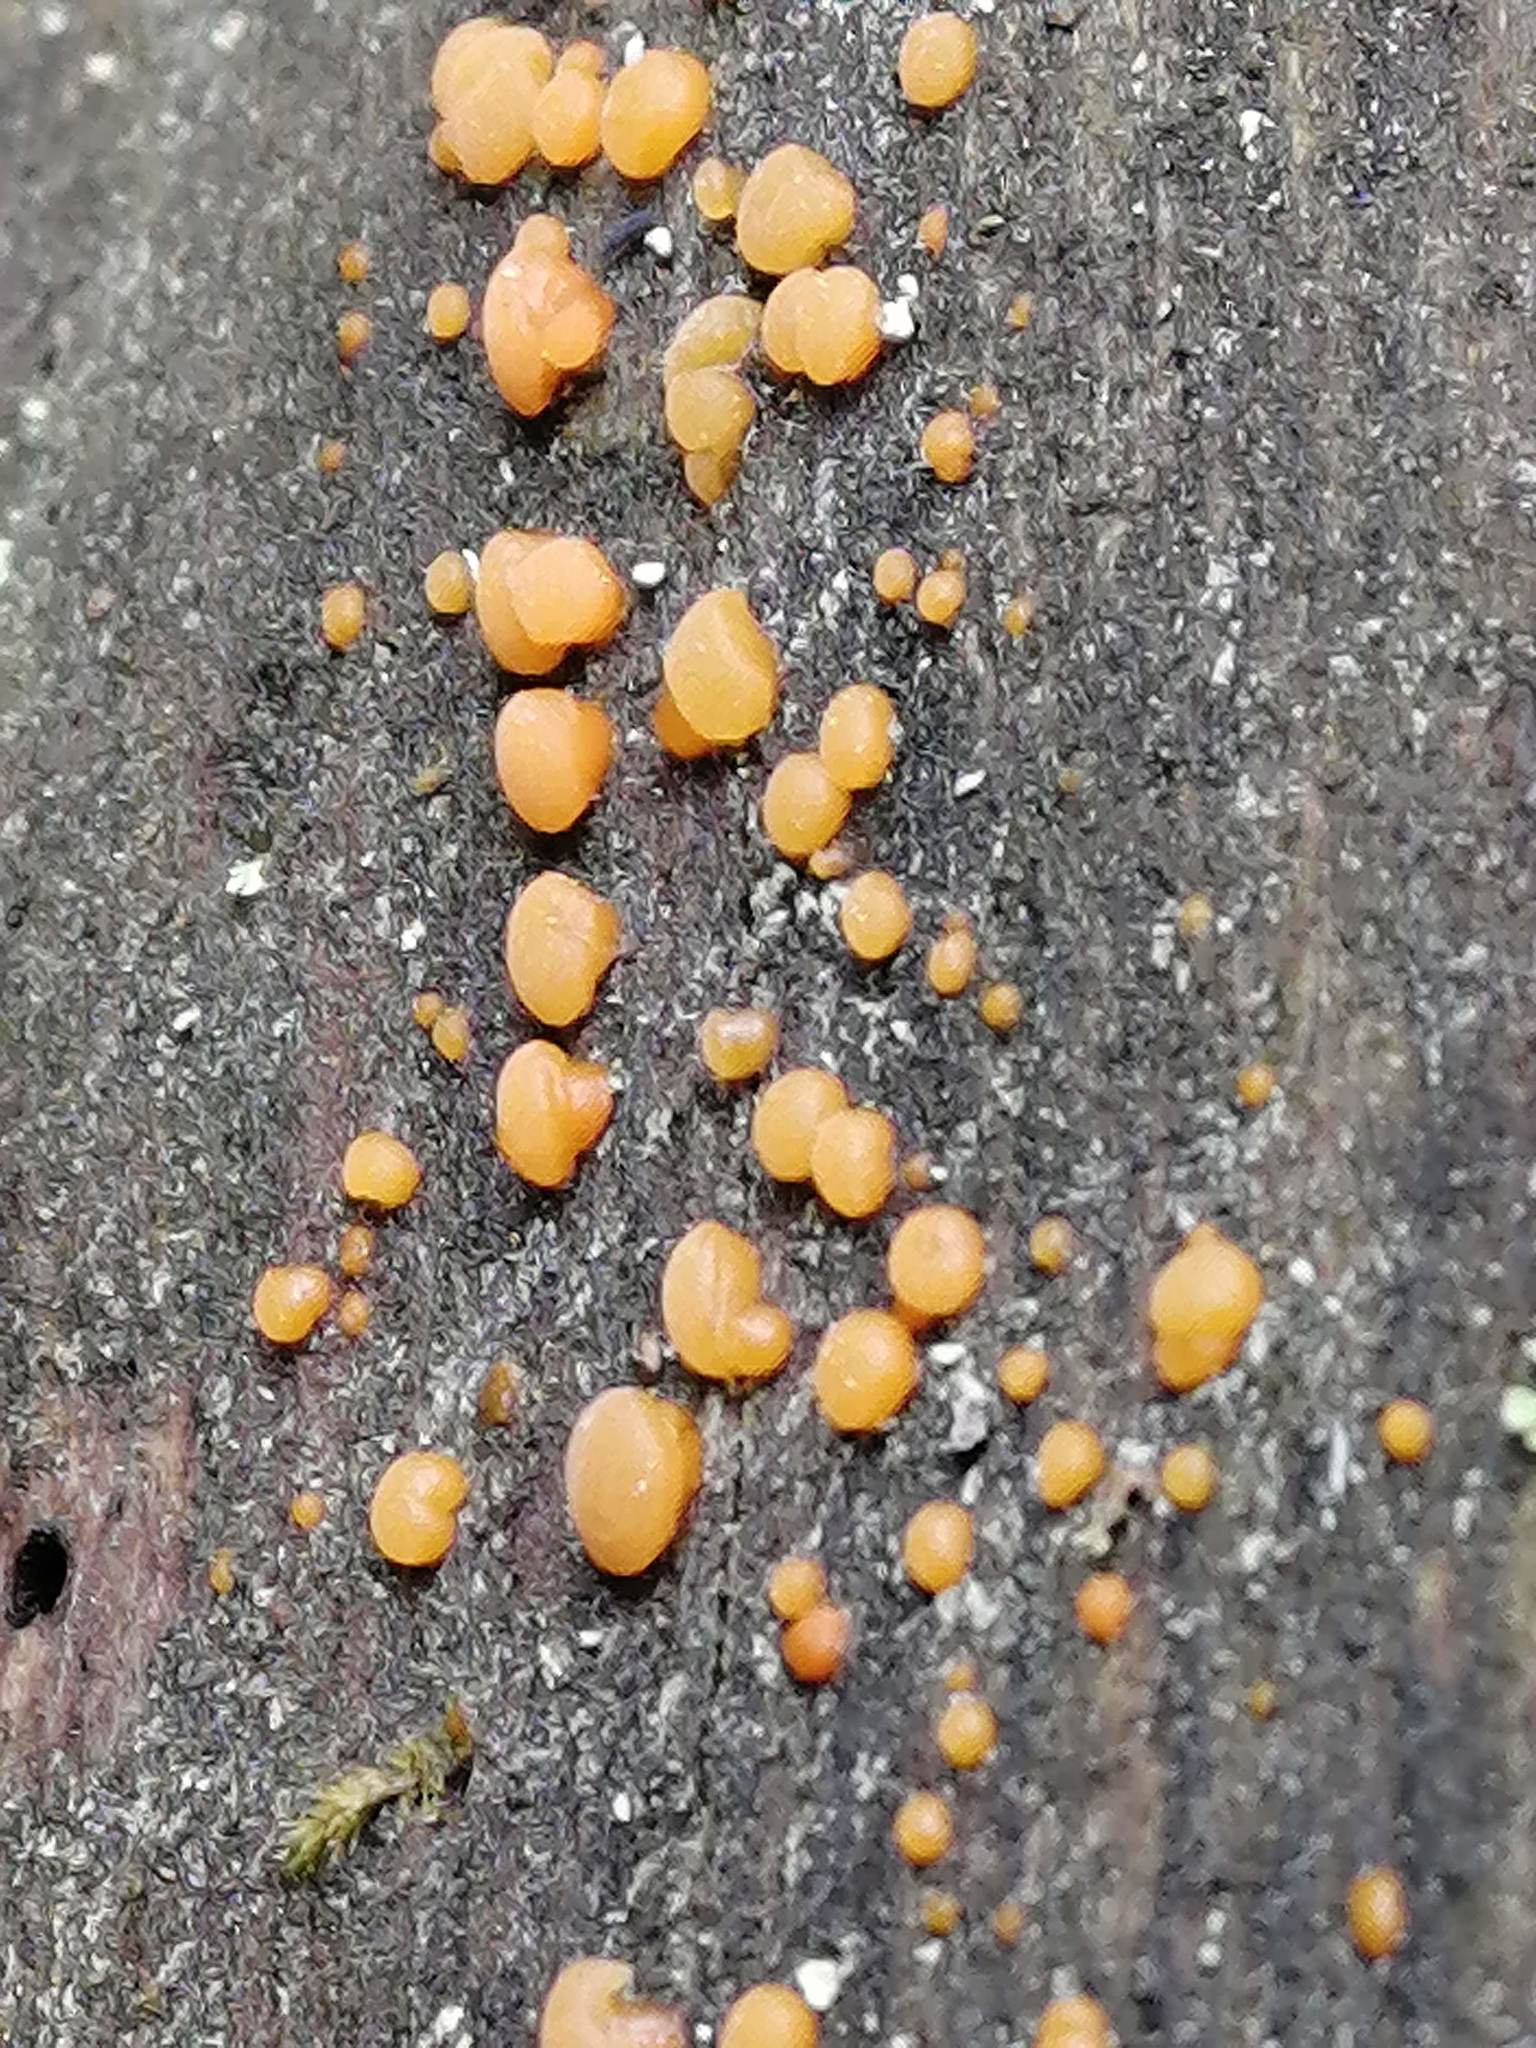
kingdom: Fungi
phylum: Basidiomycota
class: Dacrymycetes
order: Dacrymycetales
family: Dacrymycetaceae
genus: Dacrymyces
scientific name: Dacrymyces chrysospermus
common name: Orange jelly spot
